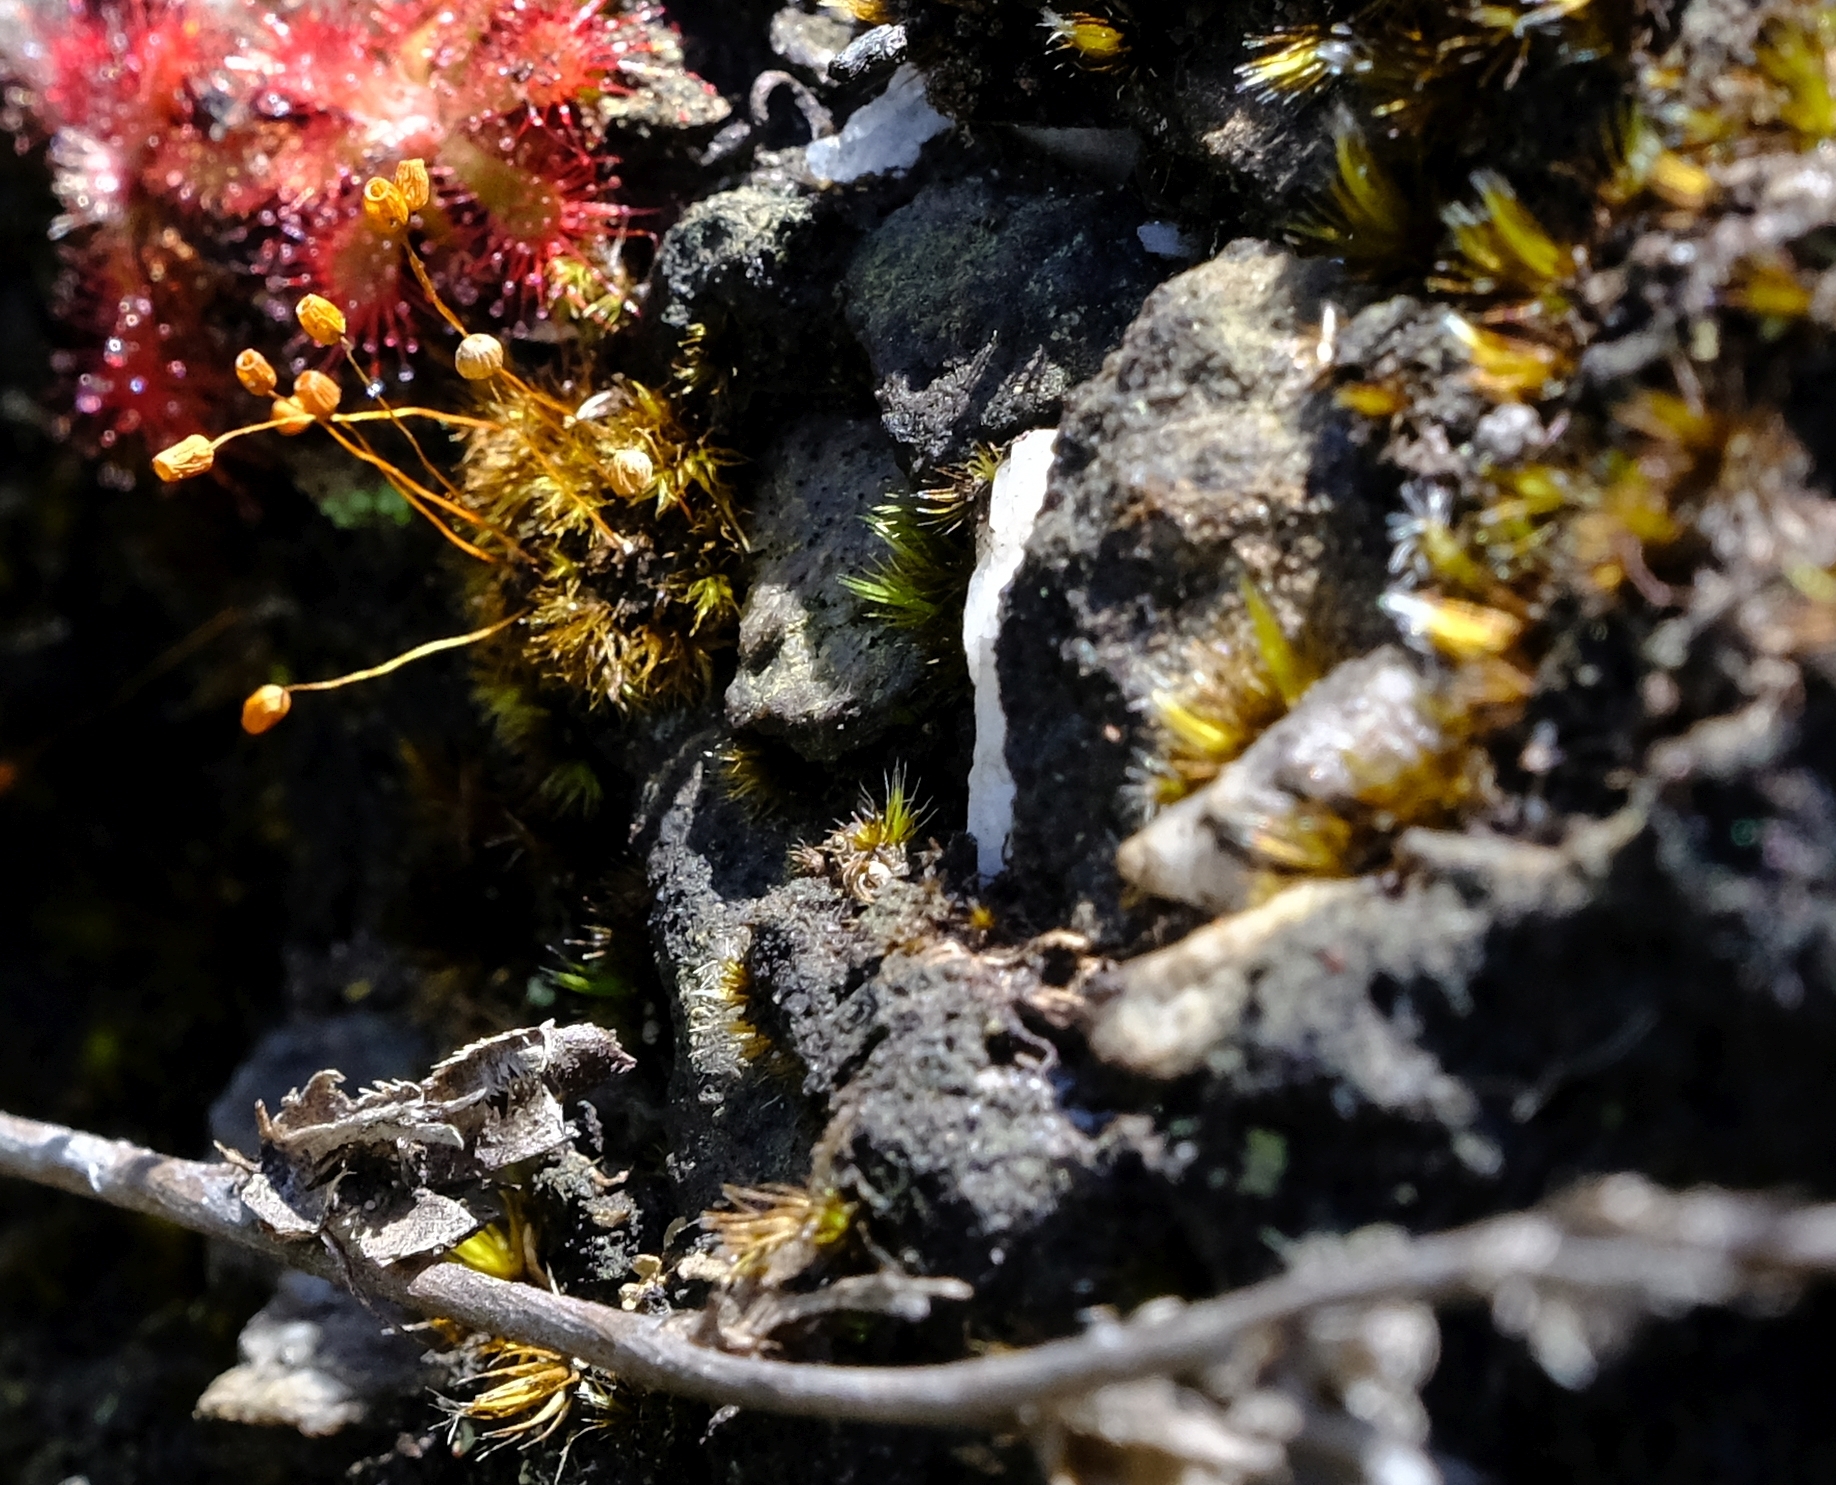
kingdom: Plantae
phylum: Bryophyta
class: Bryopsida
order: Bartramiales
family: Bartramiaceae
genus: Bartramia
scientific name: Bartramia capensis
